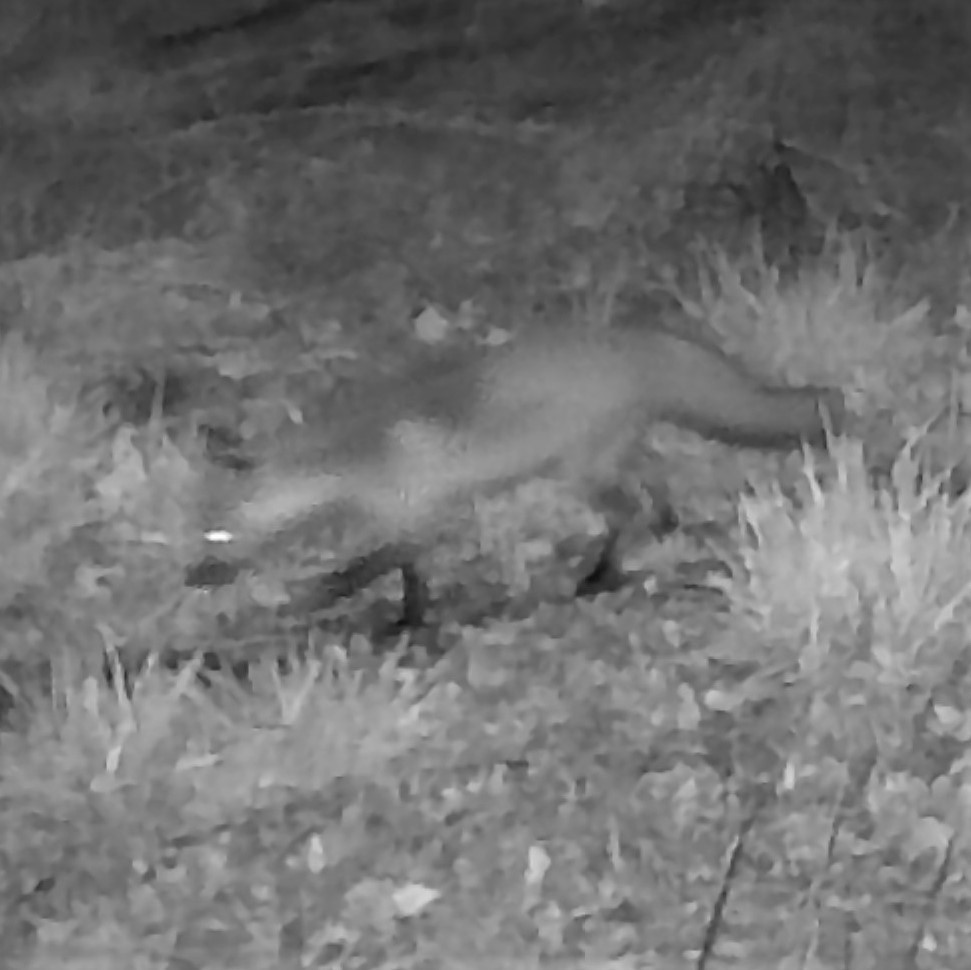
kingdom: Animalia
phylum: Chordata
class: Mammalia
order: Carnivora
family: Canidae
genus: Vulpes
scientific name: Vulpes vulpes
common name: Red fox
